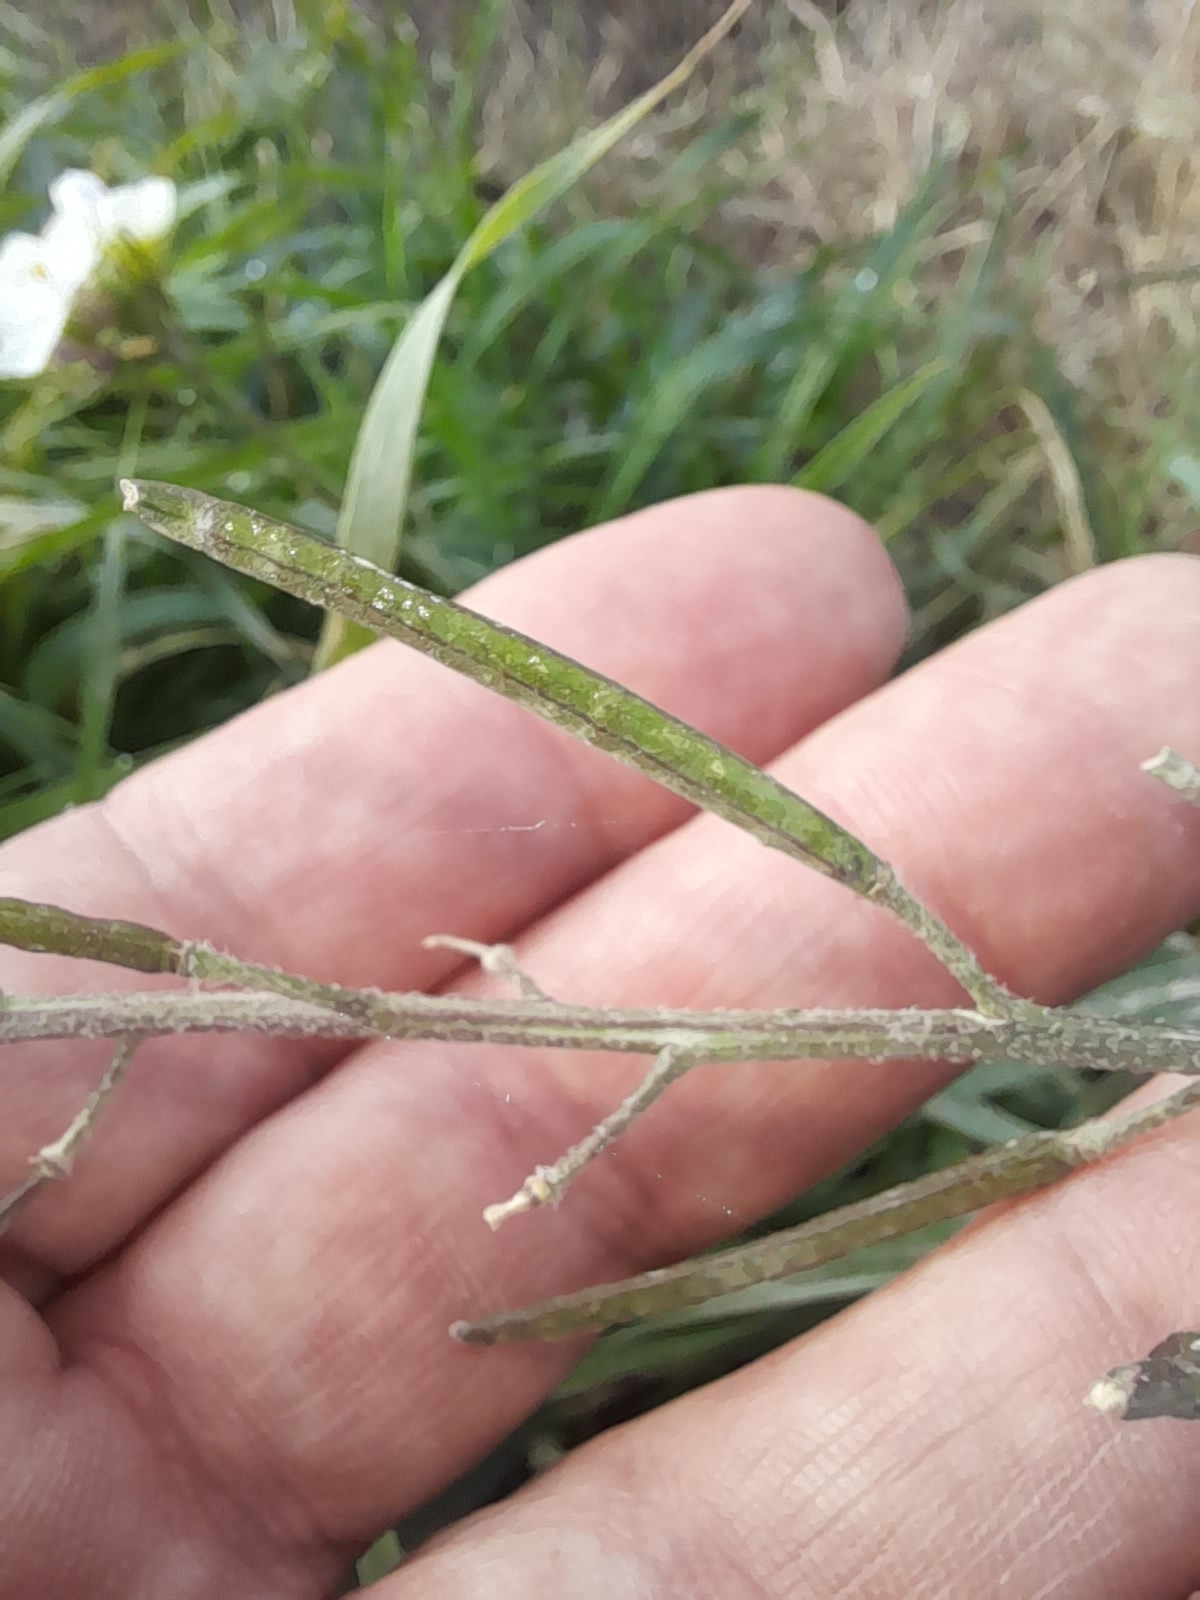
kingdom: Plantae
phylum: Tracheophyta
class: Magnoliopsida
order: Brassicales
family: Brassicaceae
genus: Diplotaxis
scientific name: Diplotaxis erucoides
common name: White rocket
